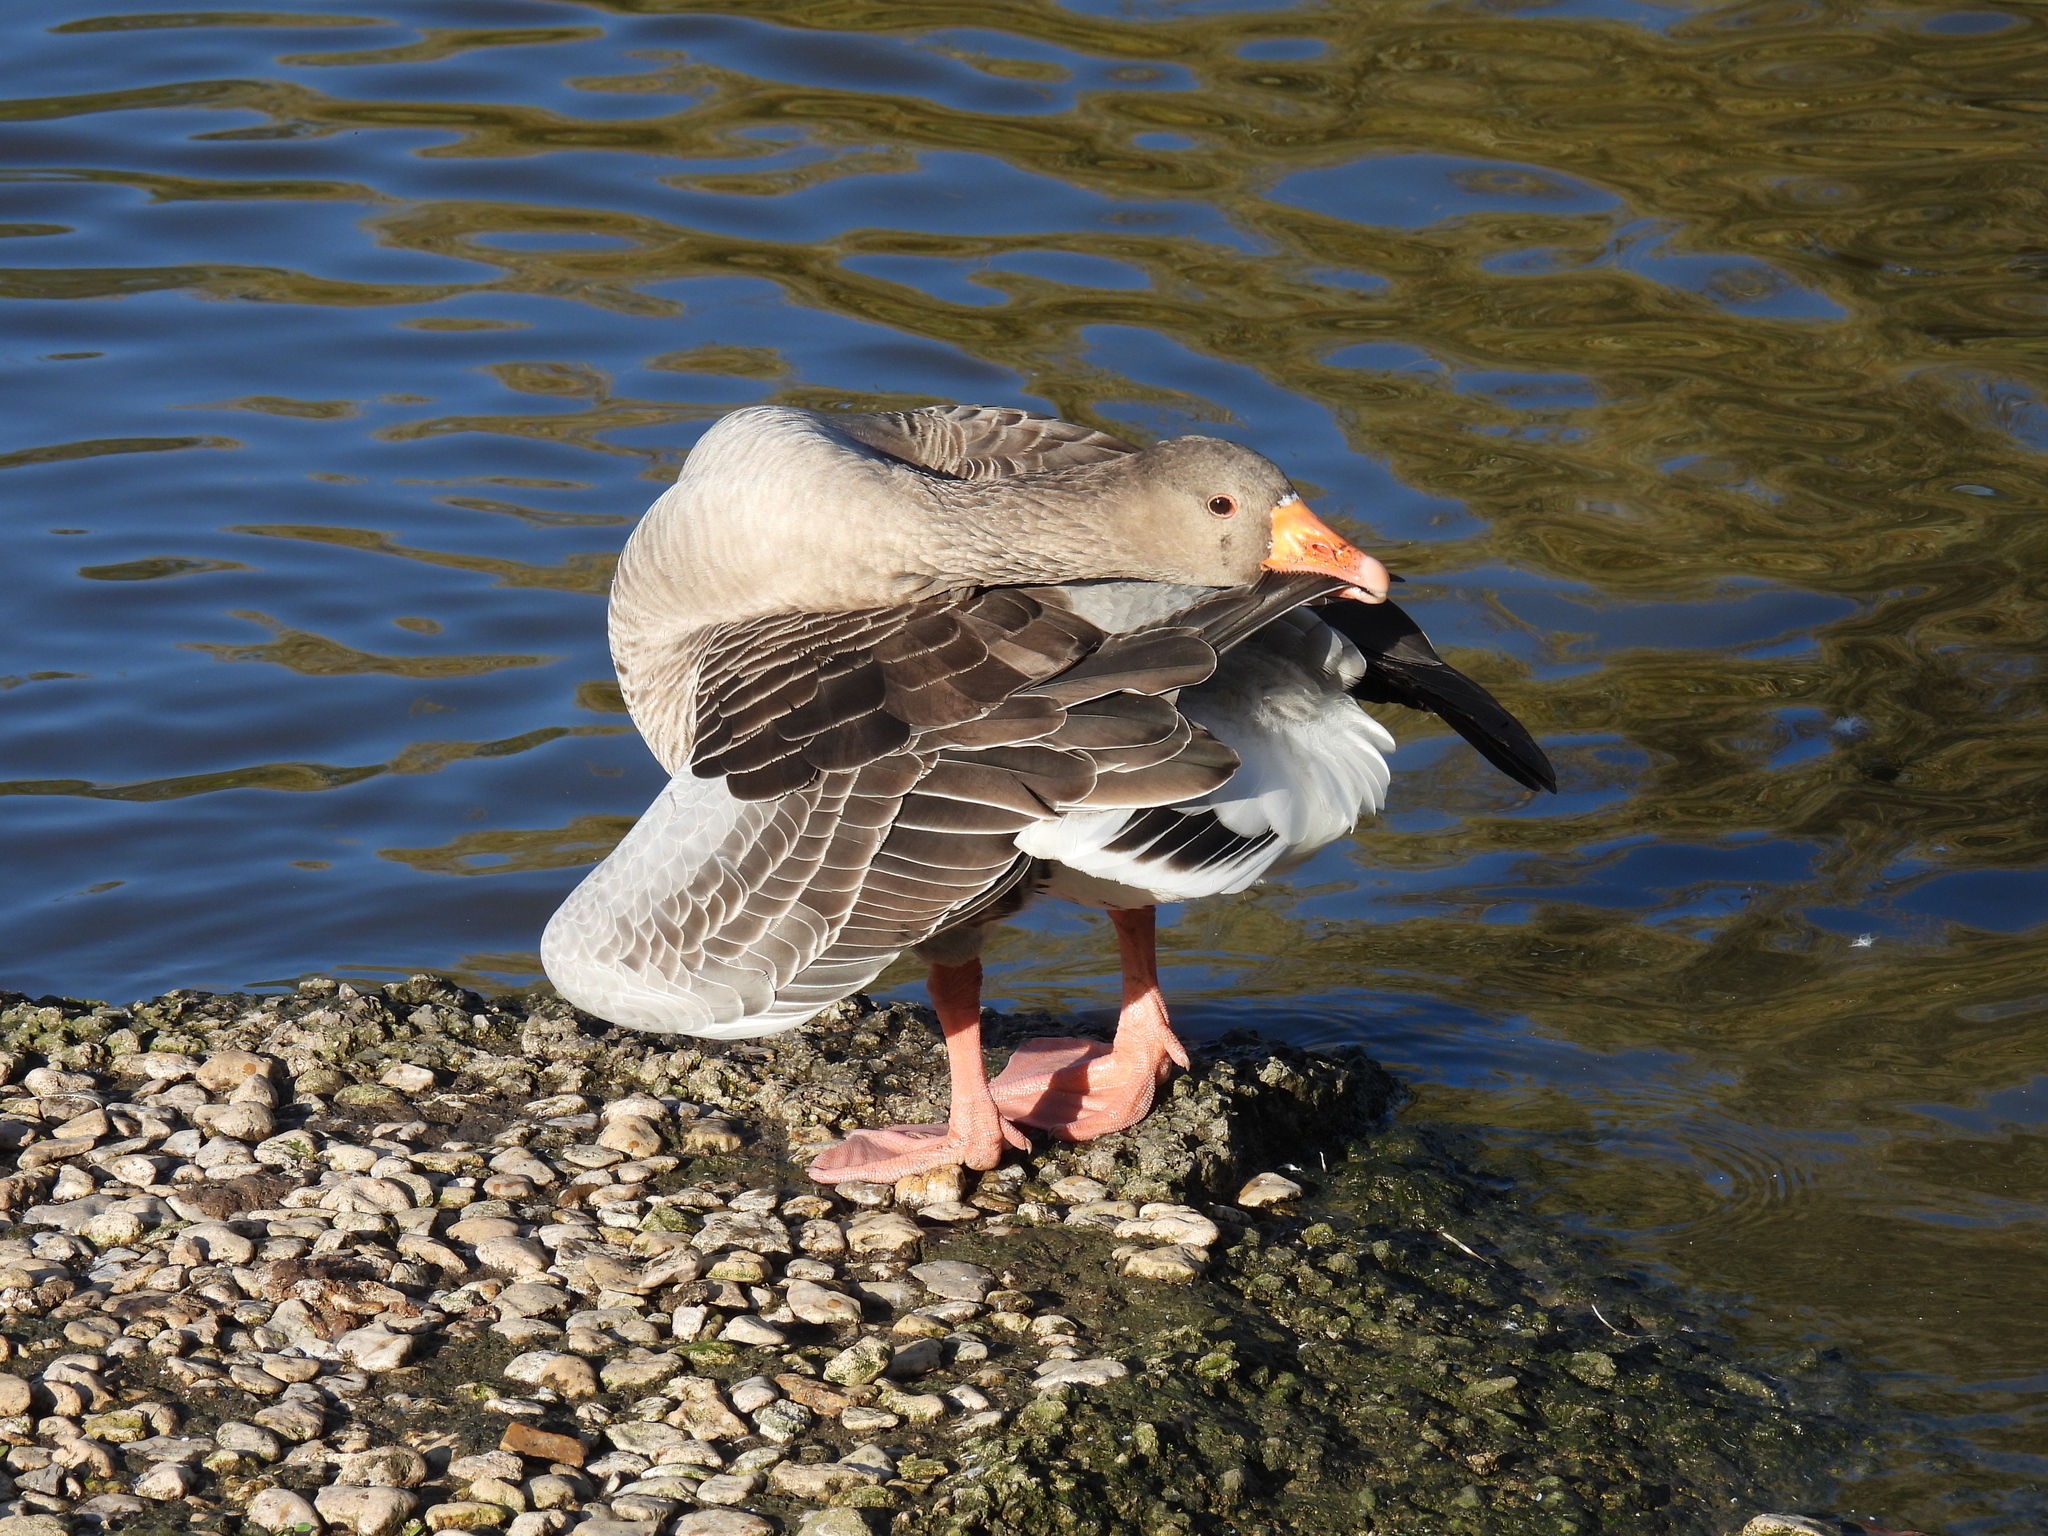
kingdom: Animalia
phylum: Chordata
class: Aves
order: Anseriformes
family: Anatidae
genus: Anser
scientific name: Anser anser
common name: Greylag goose
